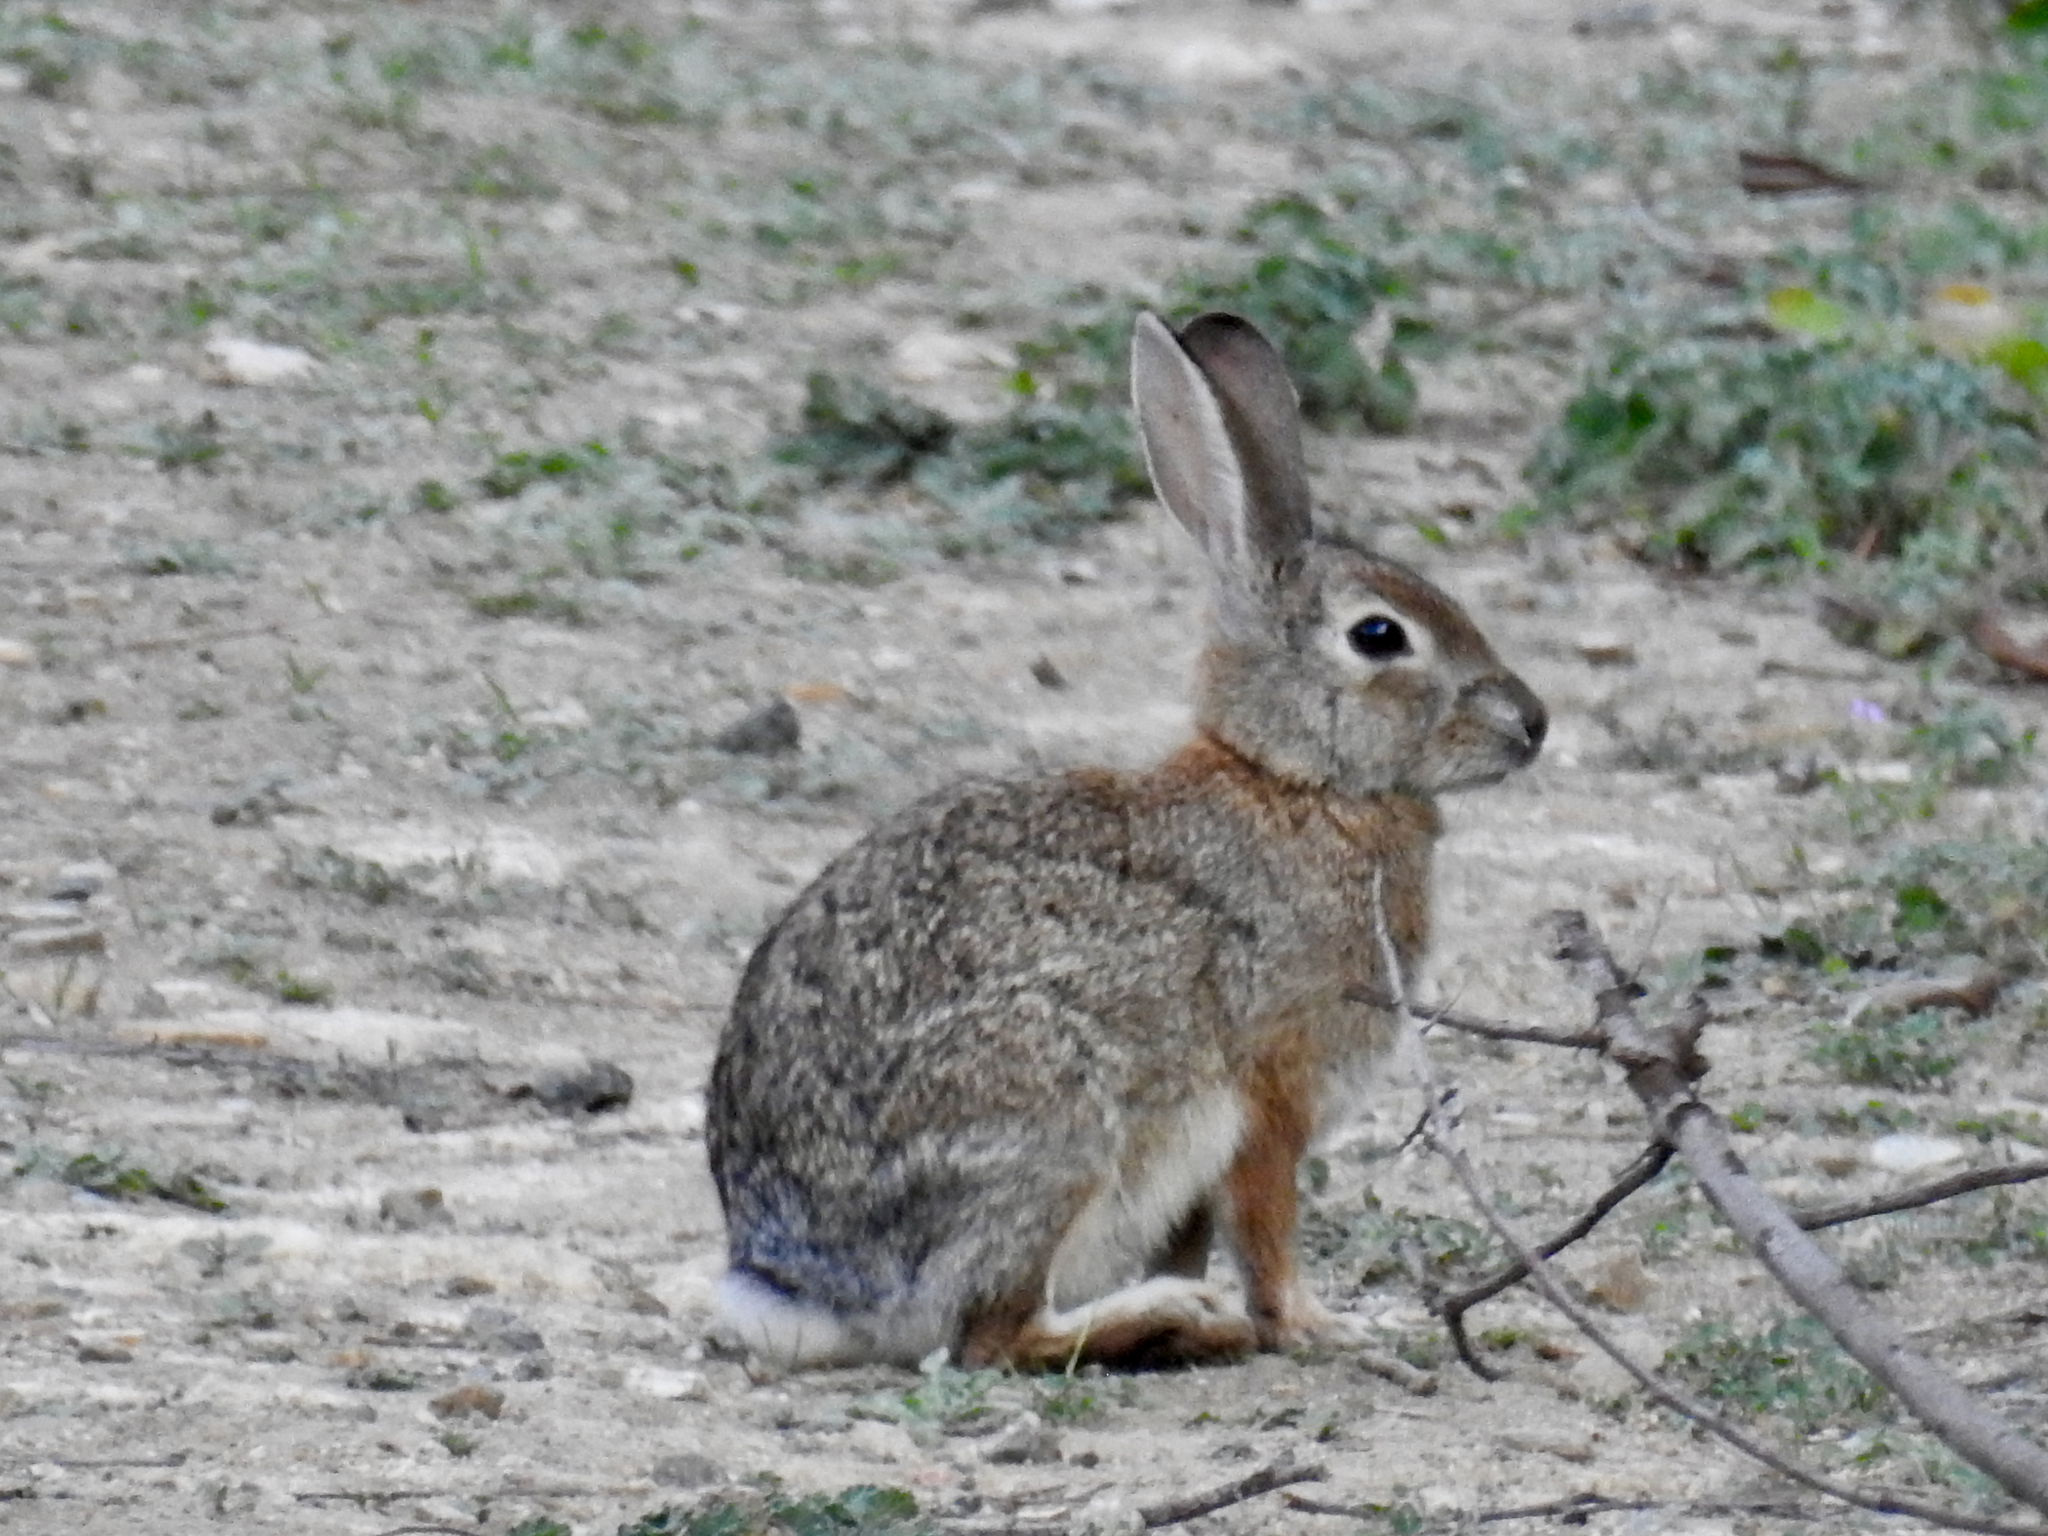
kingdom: Animalia
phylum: Chordata
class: Mammalia
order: Lagomorpha
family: Leporidae
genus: Sylvilagus
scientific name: Sylvilagus audubonii
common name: Desert cottontail
